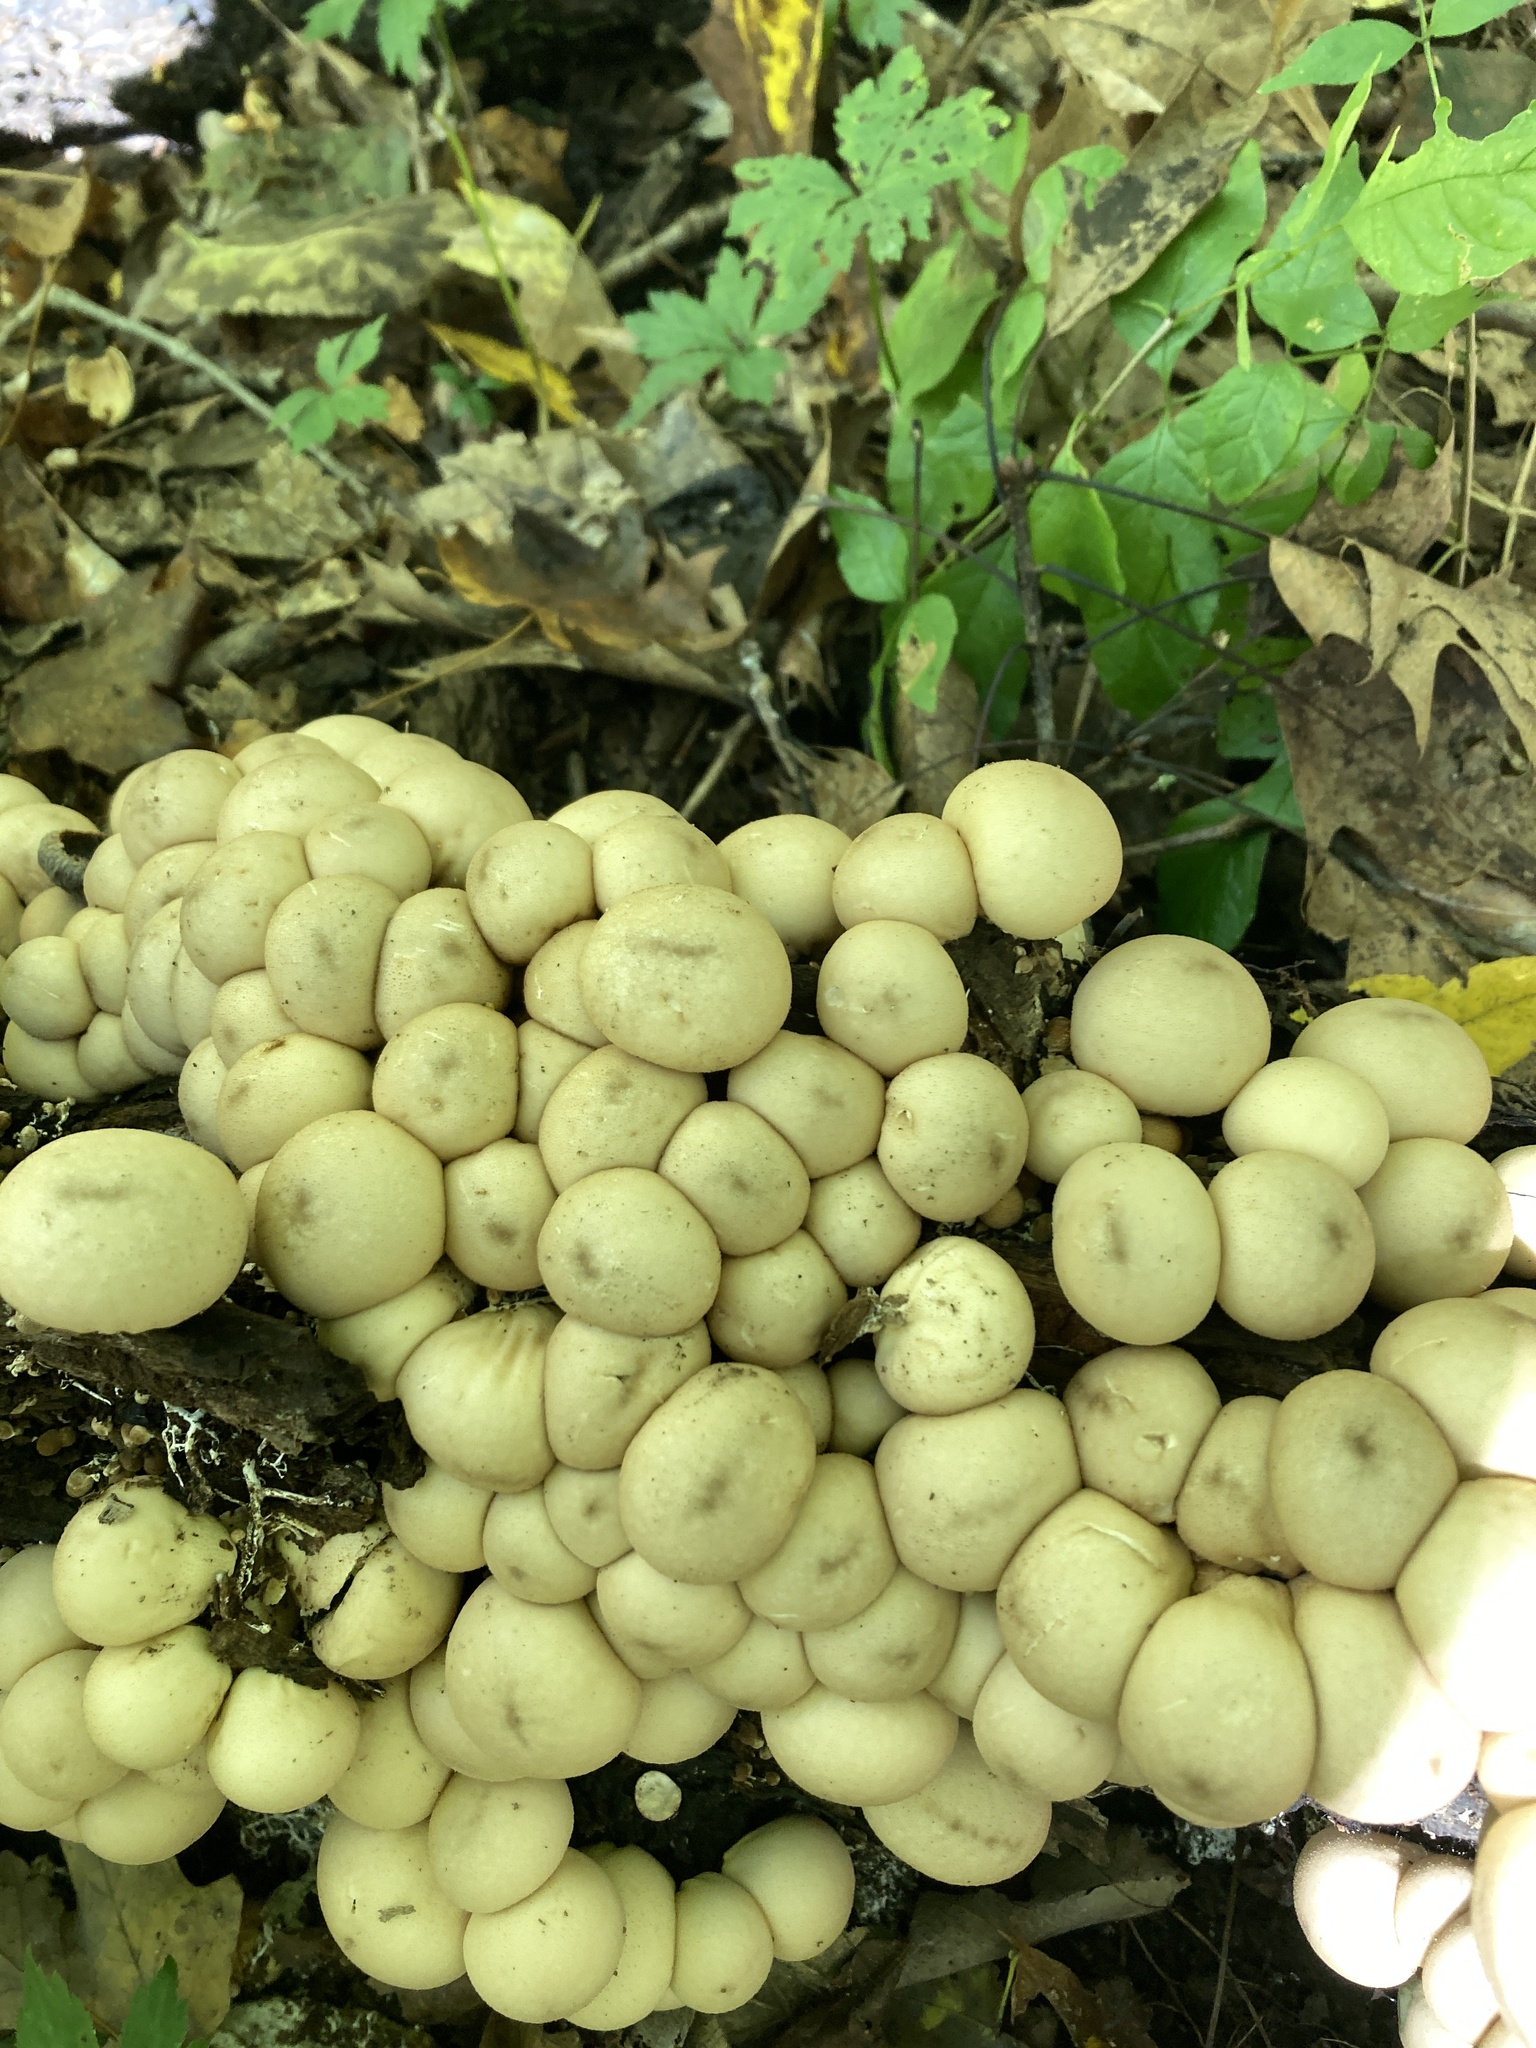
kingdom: Fungi
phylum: Basidiomycota
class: Agaricomycetes
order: Agaricales
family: Lycoperdaceae
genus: Apioperdon
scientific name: Apioperdon pyriforme
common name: Pear-shaped puffball
